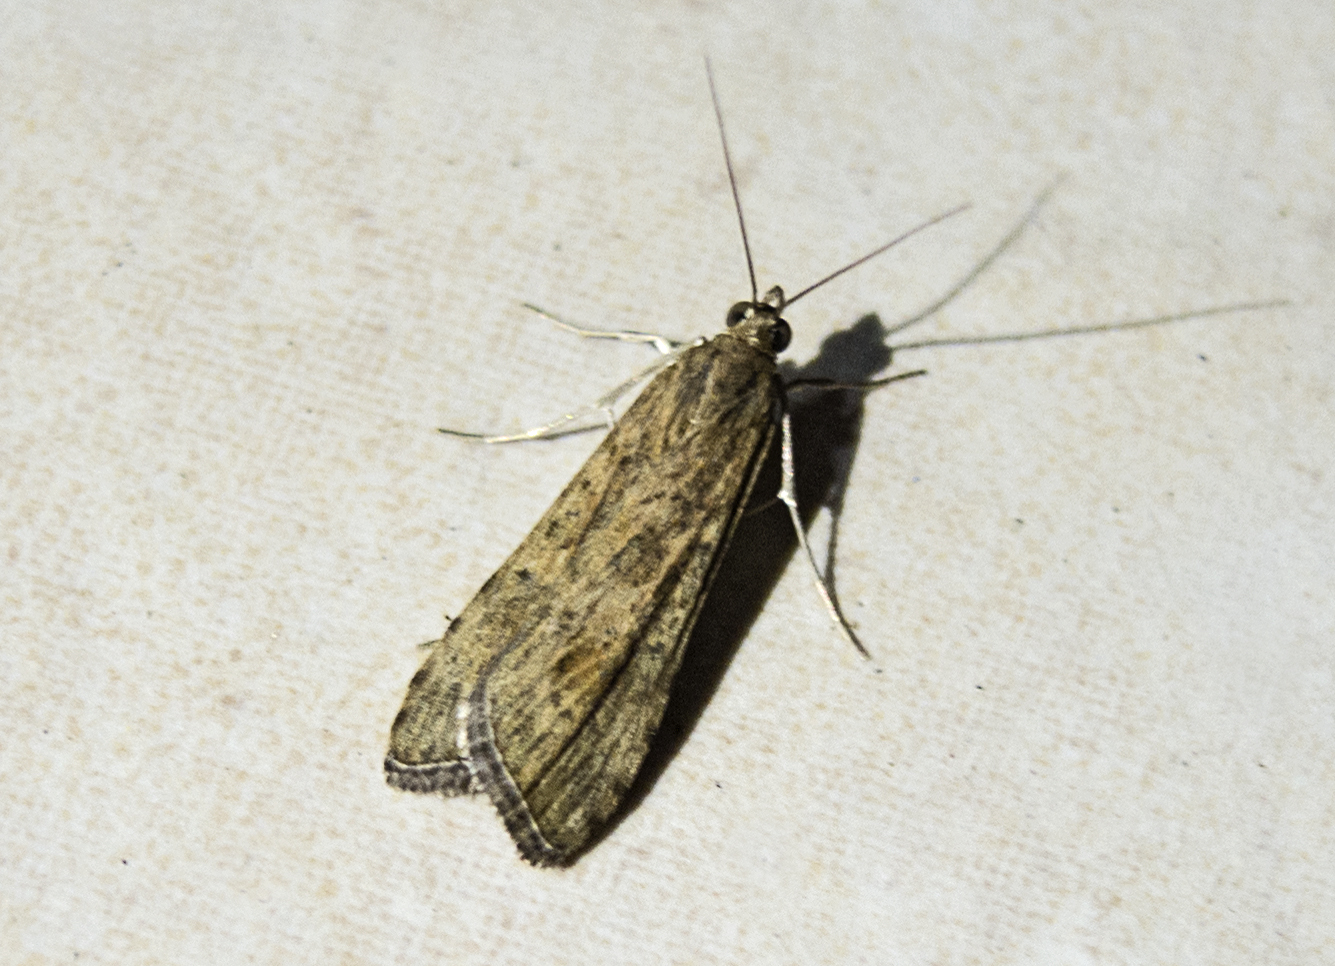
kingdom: Animalia
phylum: Arthropoda
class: Insecta
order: Lepidoptera
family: Crambidae
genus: Nomophila
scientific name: Nomophila noctuella
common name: Rush veneer
